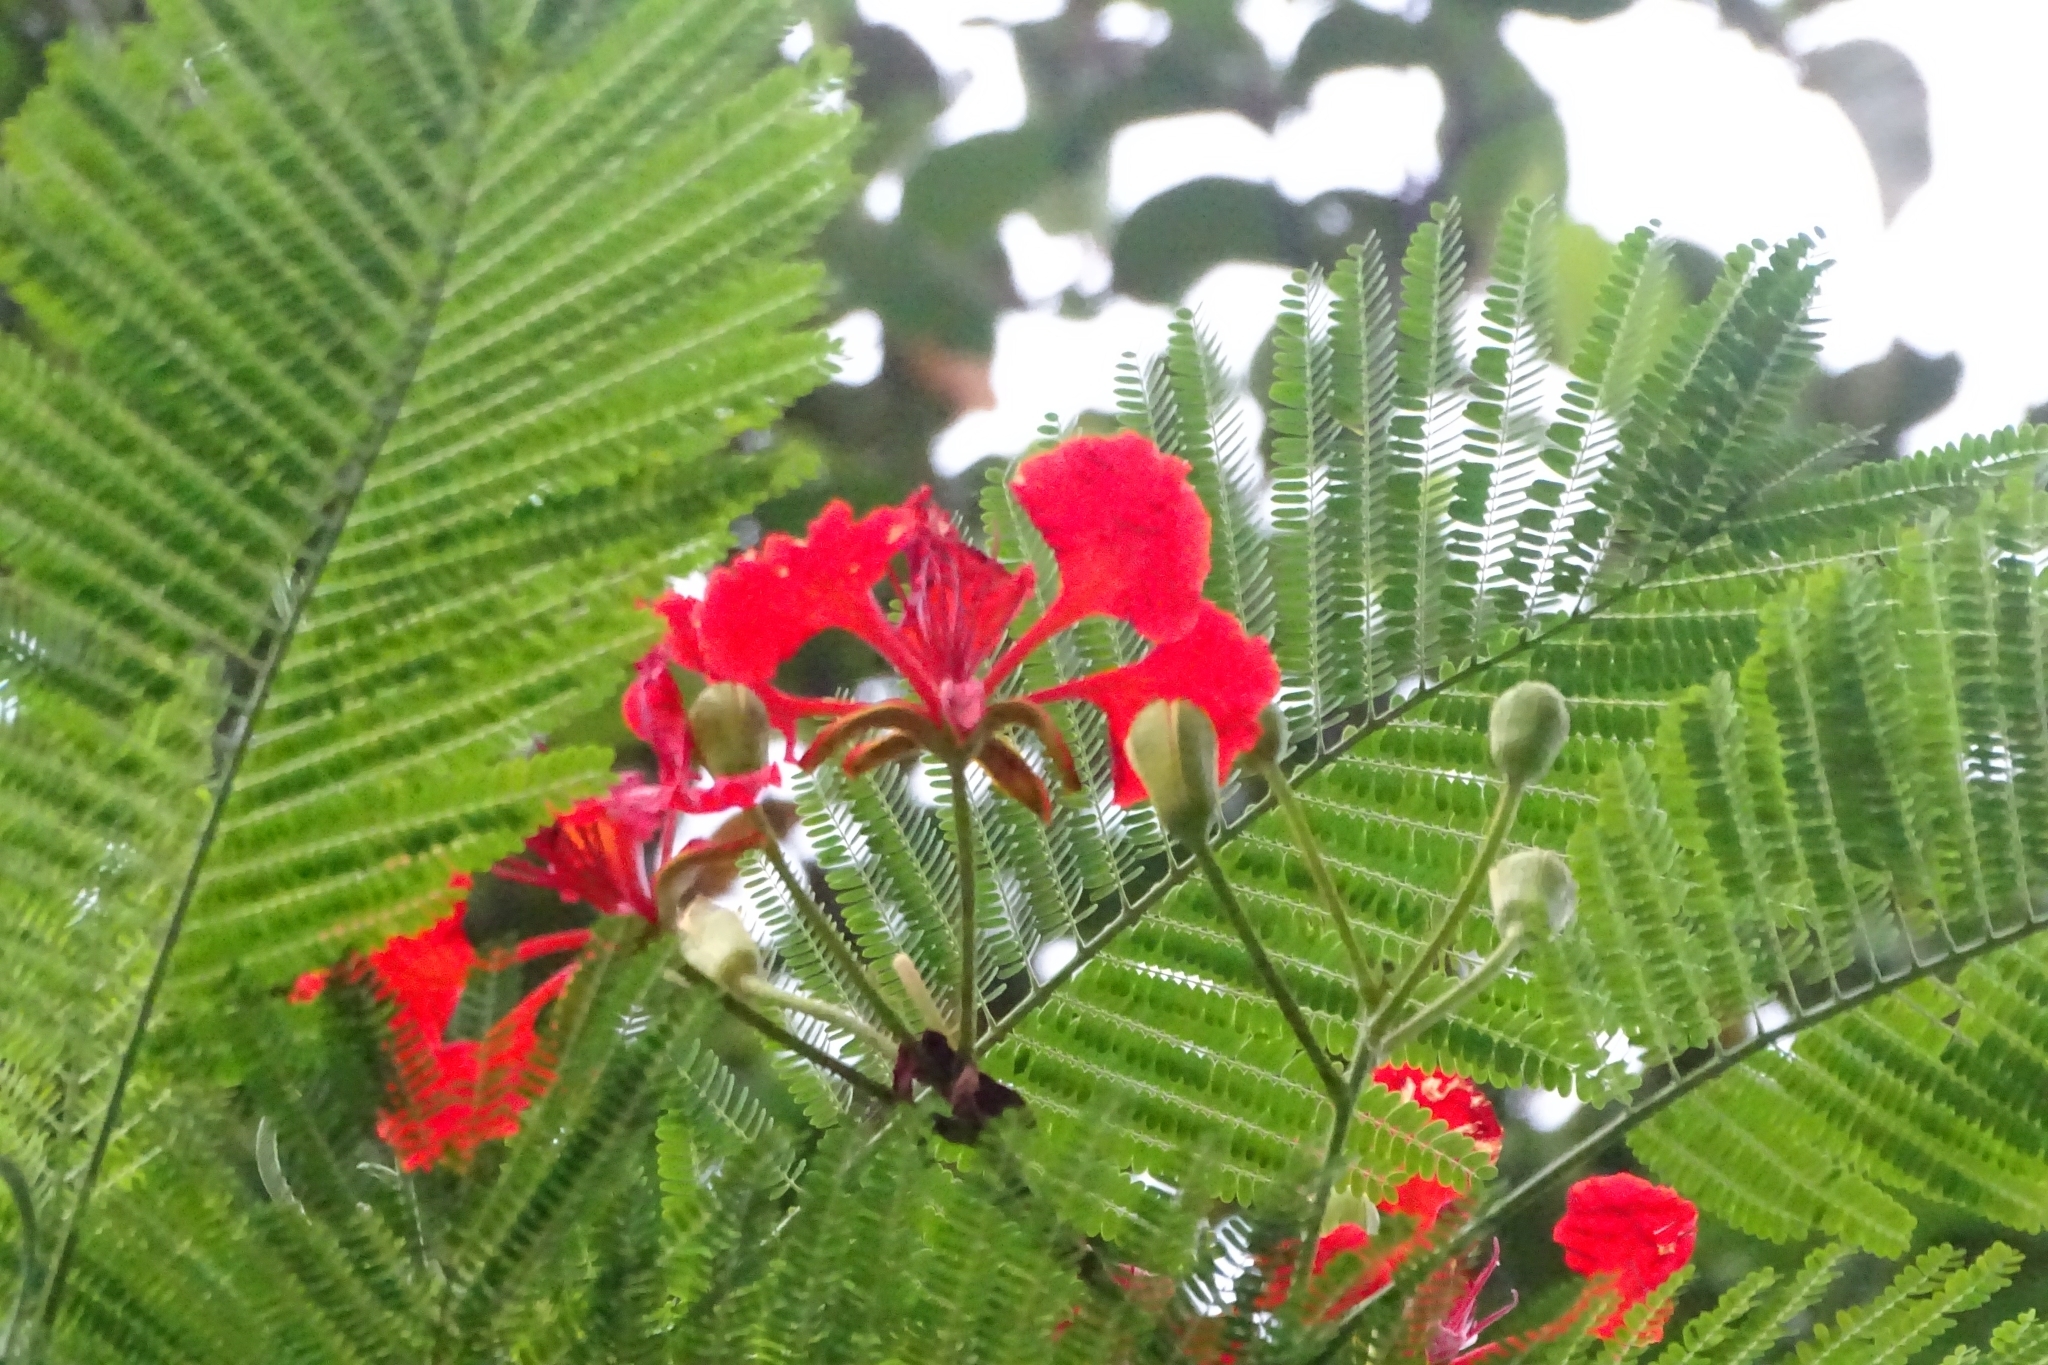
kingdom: Plantae
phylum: Tracheophyta
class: Magnoliopsida
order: Fabales
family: Fabaceae
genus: Delonix
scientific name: Delonix regia
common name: Royal poinciana
